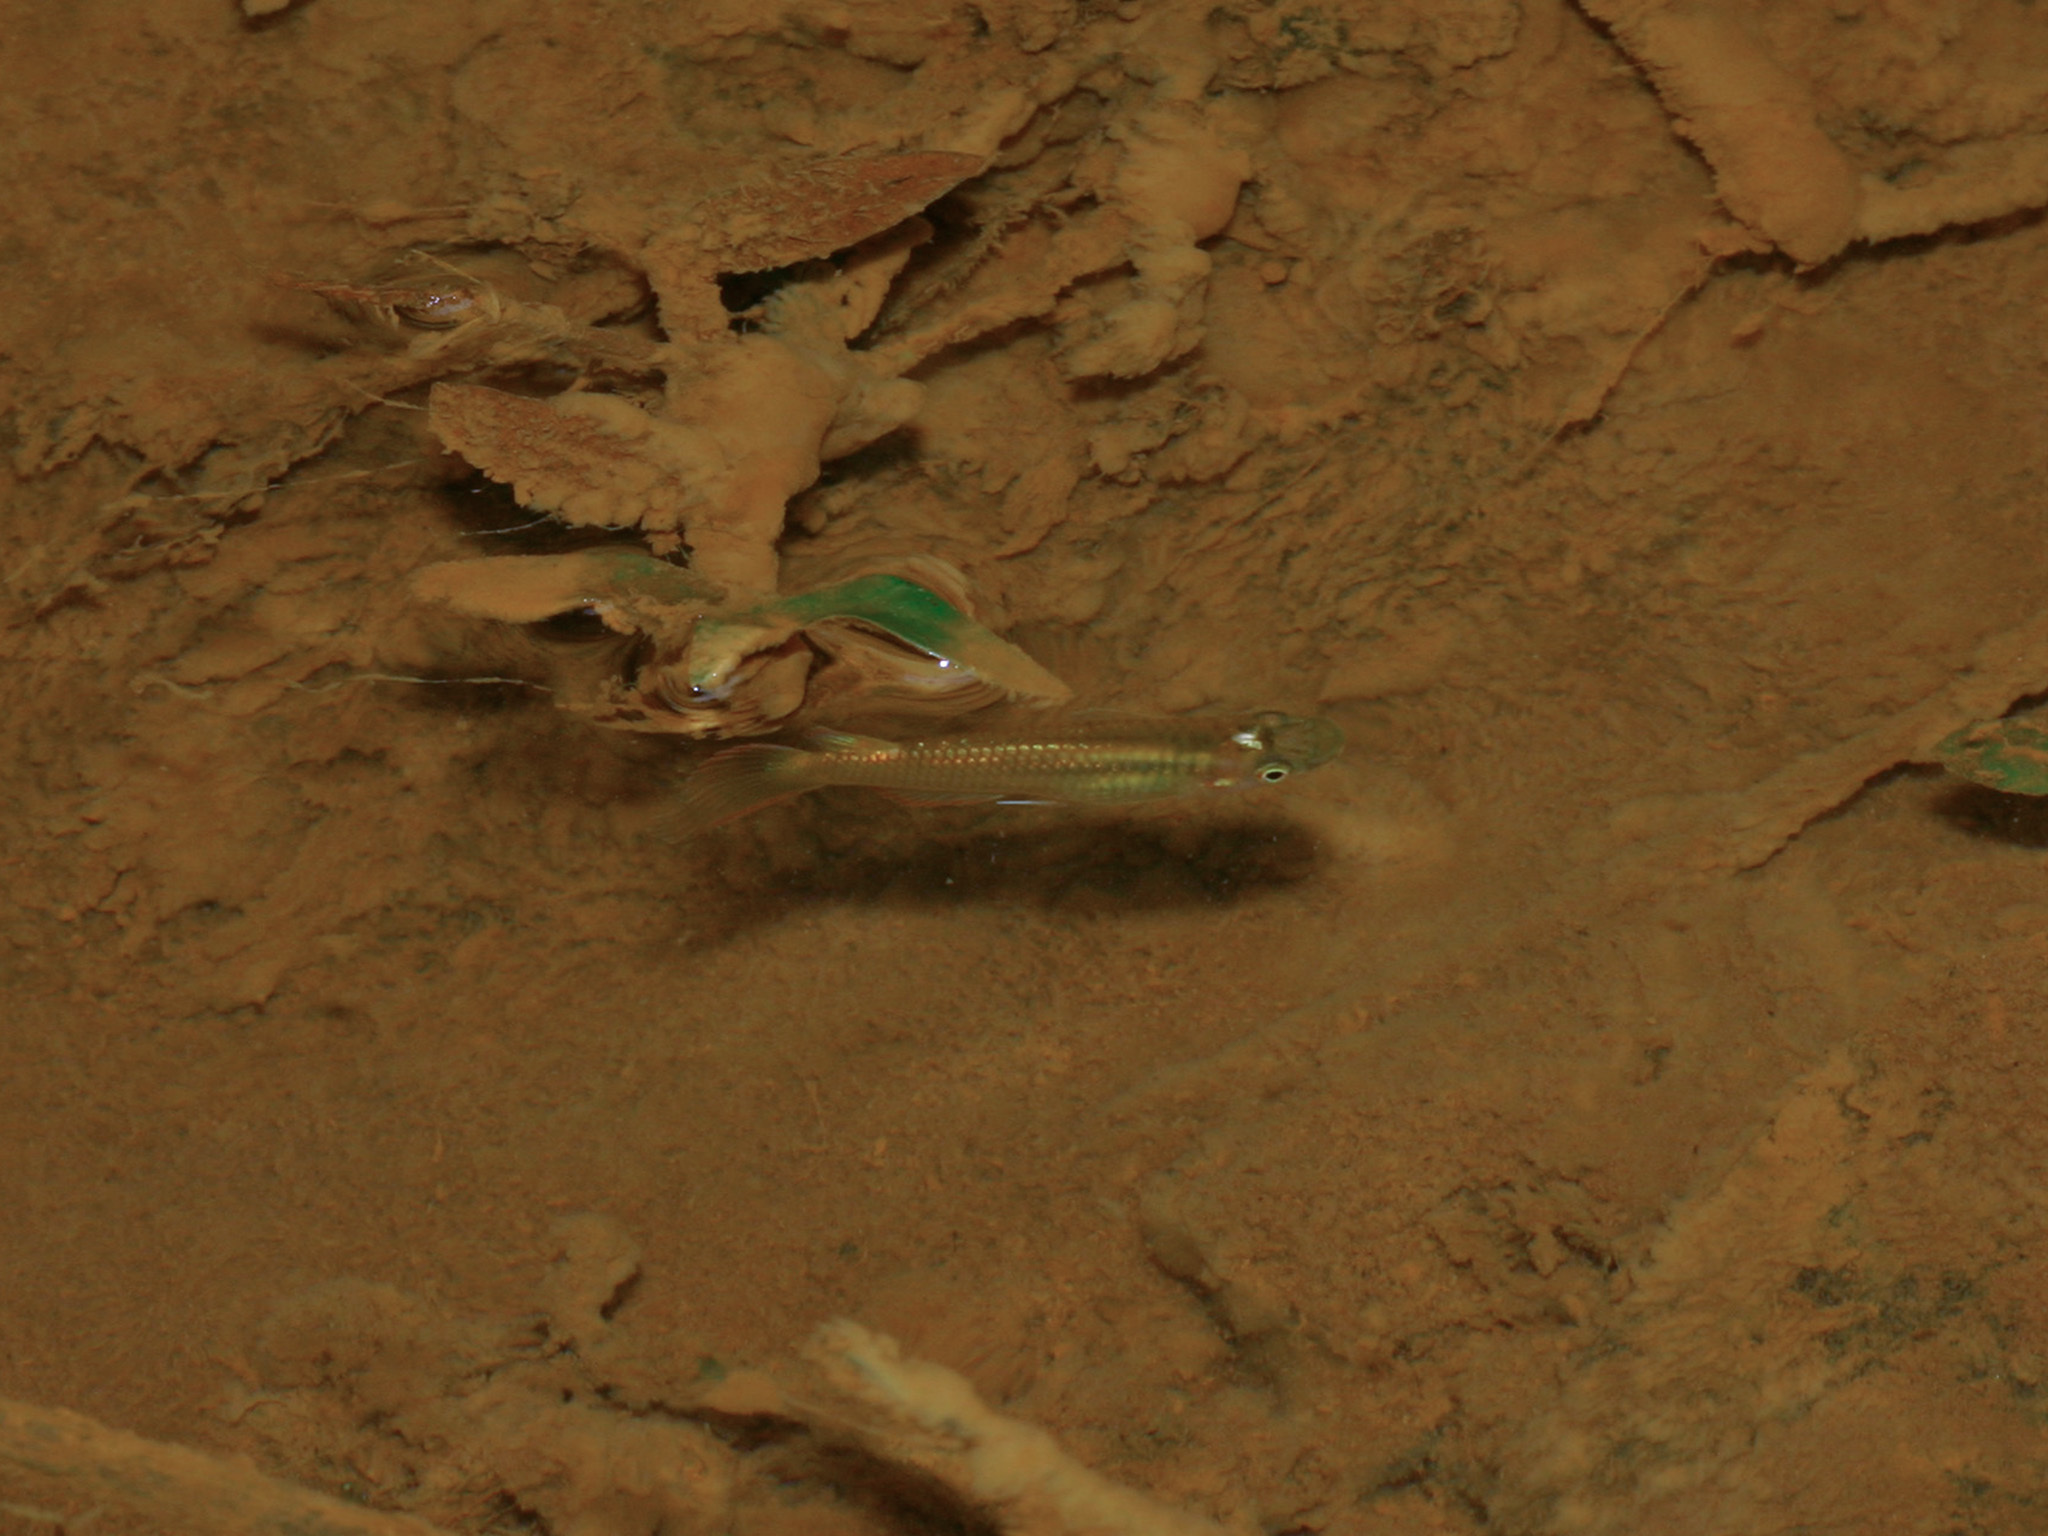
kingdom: Animalia
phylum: Chordata
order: Cyprinodontiformes
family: Aplocheilidae
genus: Aplocheilus
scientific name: Aplocheilus panchax
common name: Blue panchax
